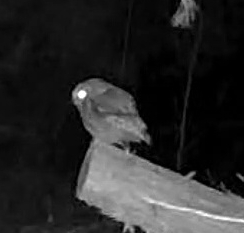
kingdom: Animalia
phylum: Chordata
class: Aves
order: Strigiformes
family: Strigidae
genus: Megascops
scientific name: Megascops asio
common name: Eastern screech-owl
